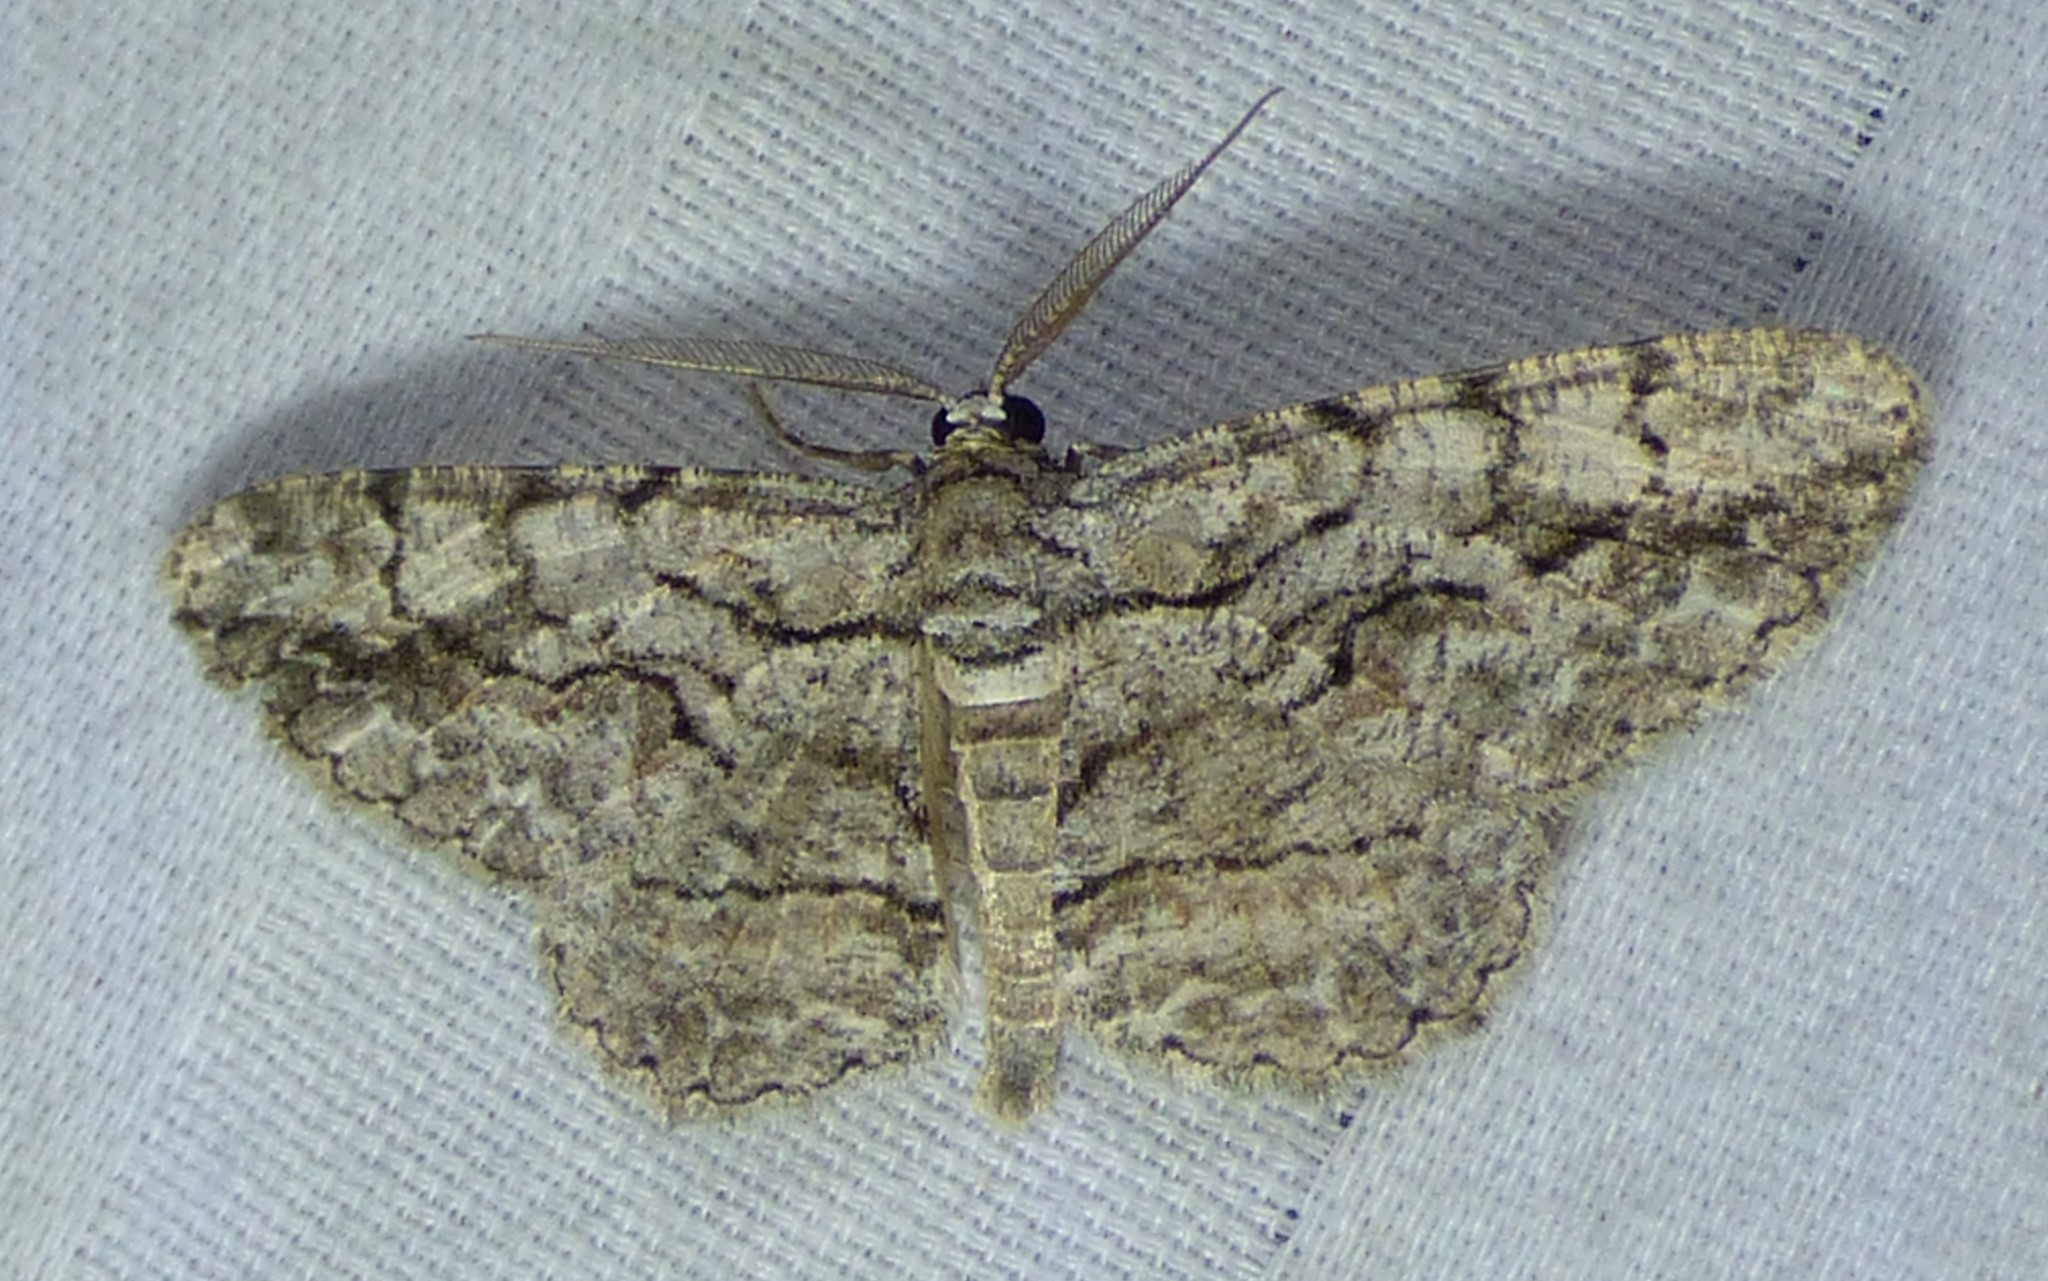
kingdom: Animalia
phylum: Arthropoda
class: Insecta
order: Lepidoptera
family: Geometridae
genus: Anavitrinella
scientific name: Anavitrinella pampinaria
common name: Common gray
